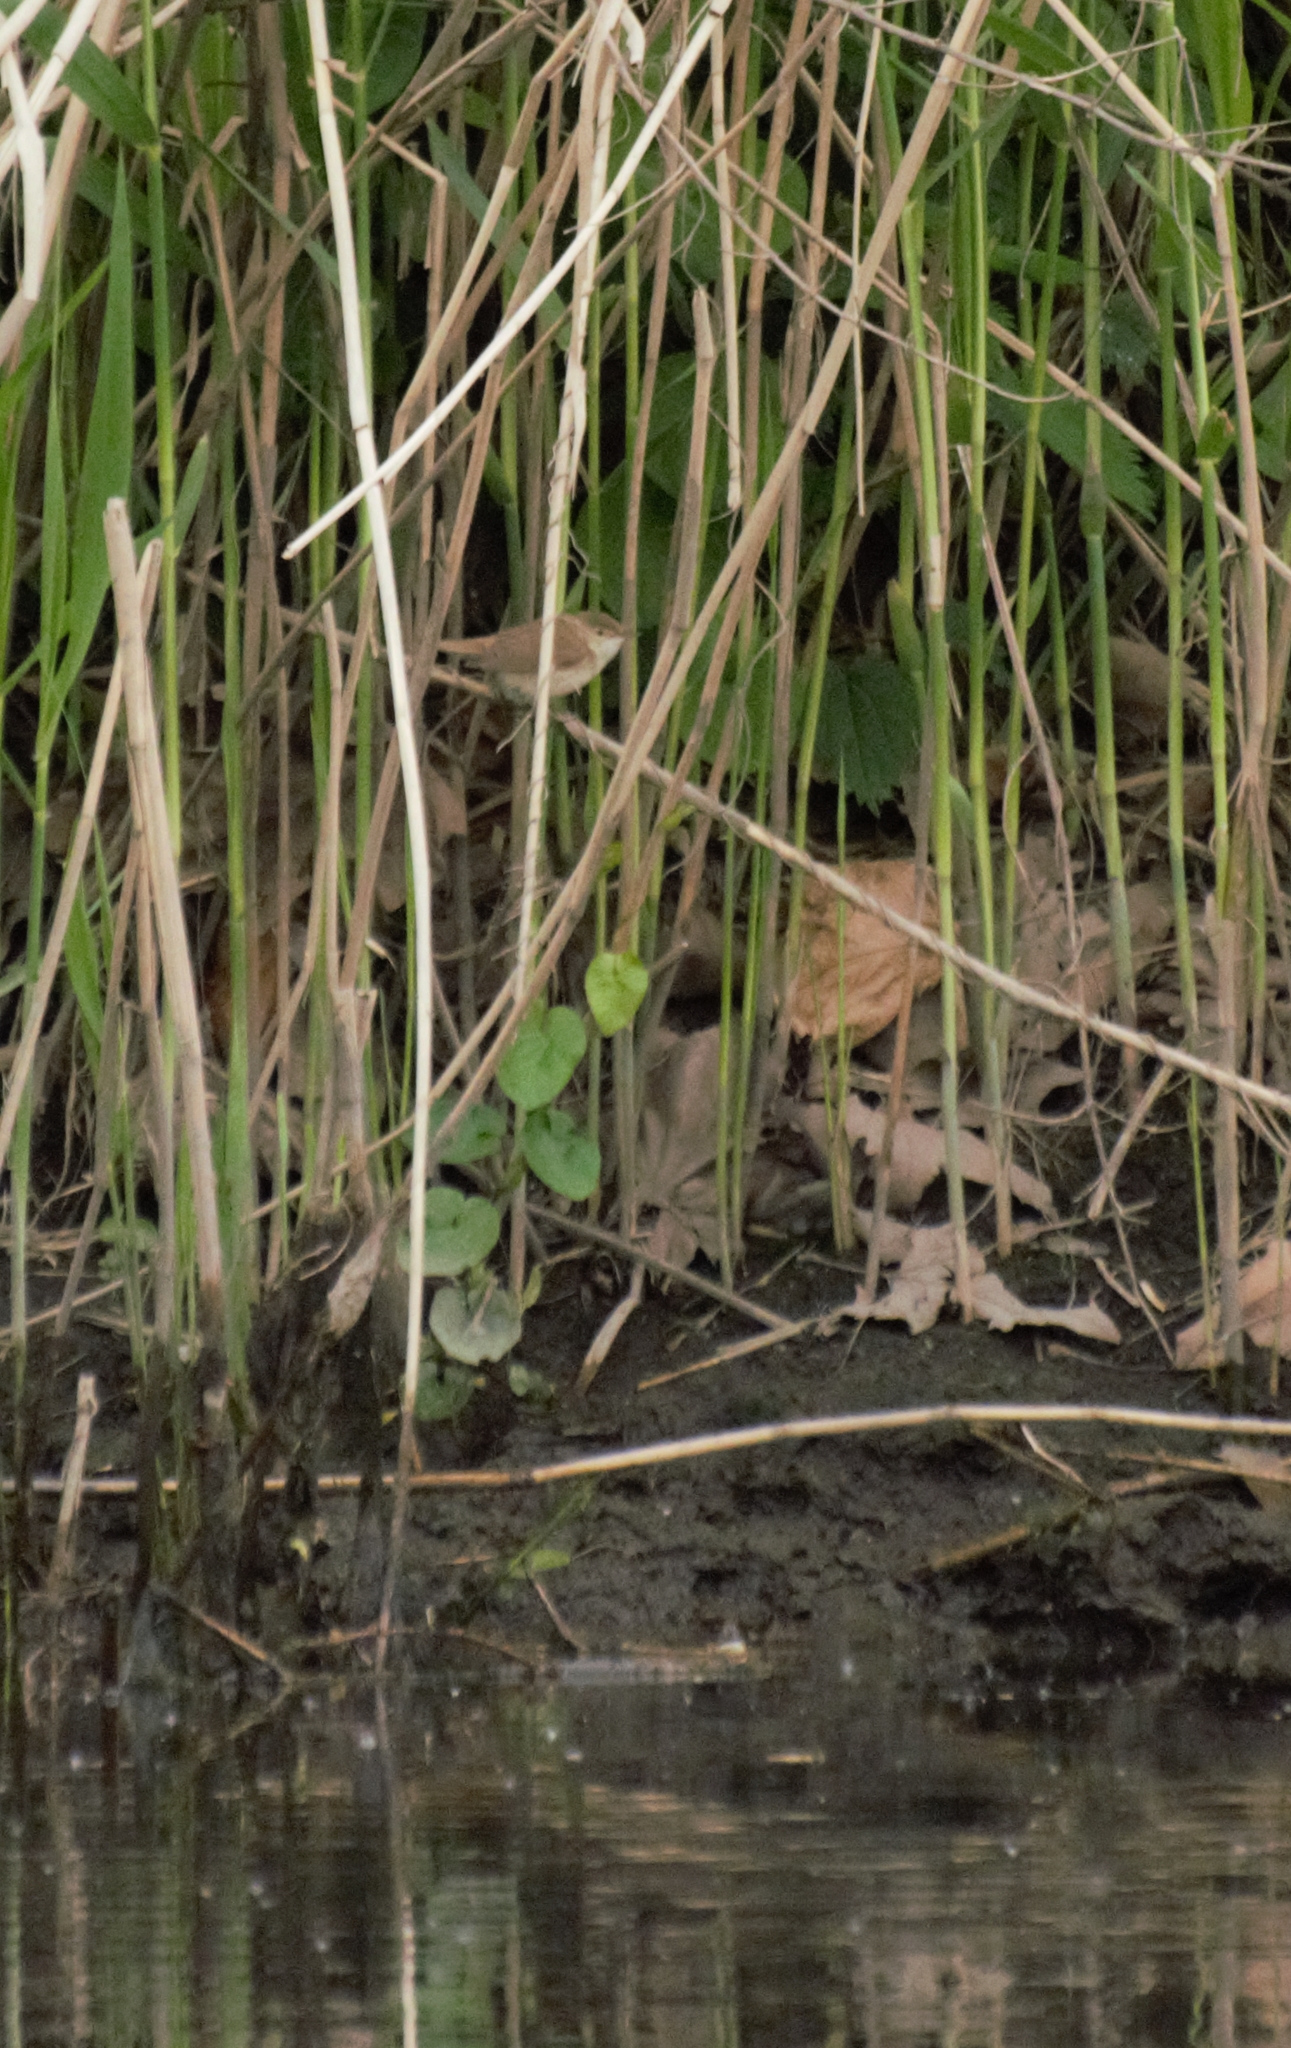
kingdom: Animalia
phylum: Chordata
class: Aves
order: Passeriformes
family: Cettiidae
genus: Cettia
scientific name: Cettia cetti
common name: Cetti's warbler
